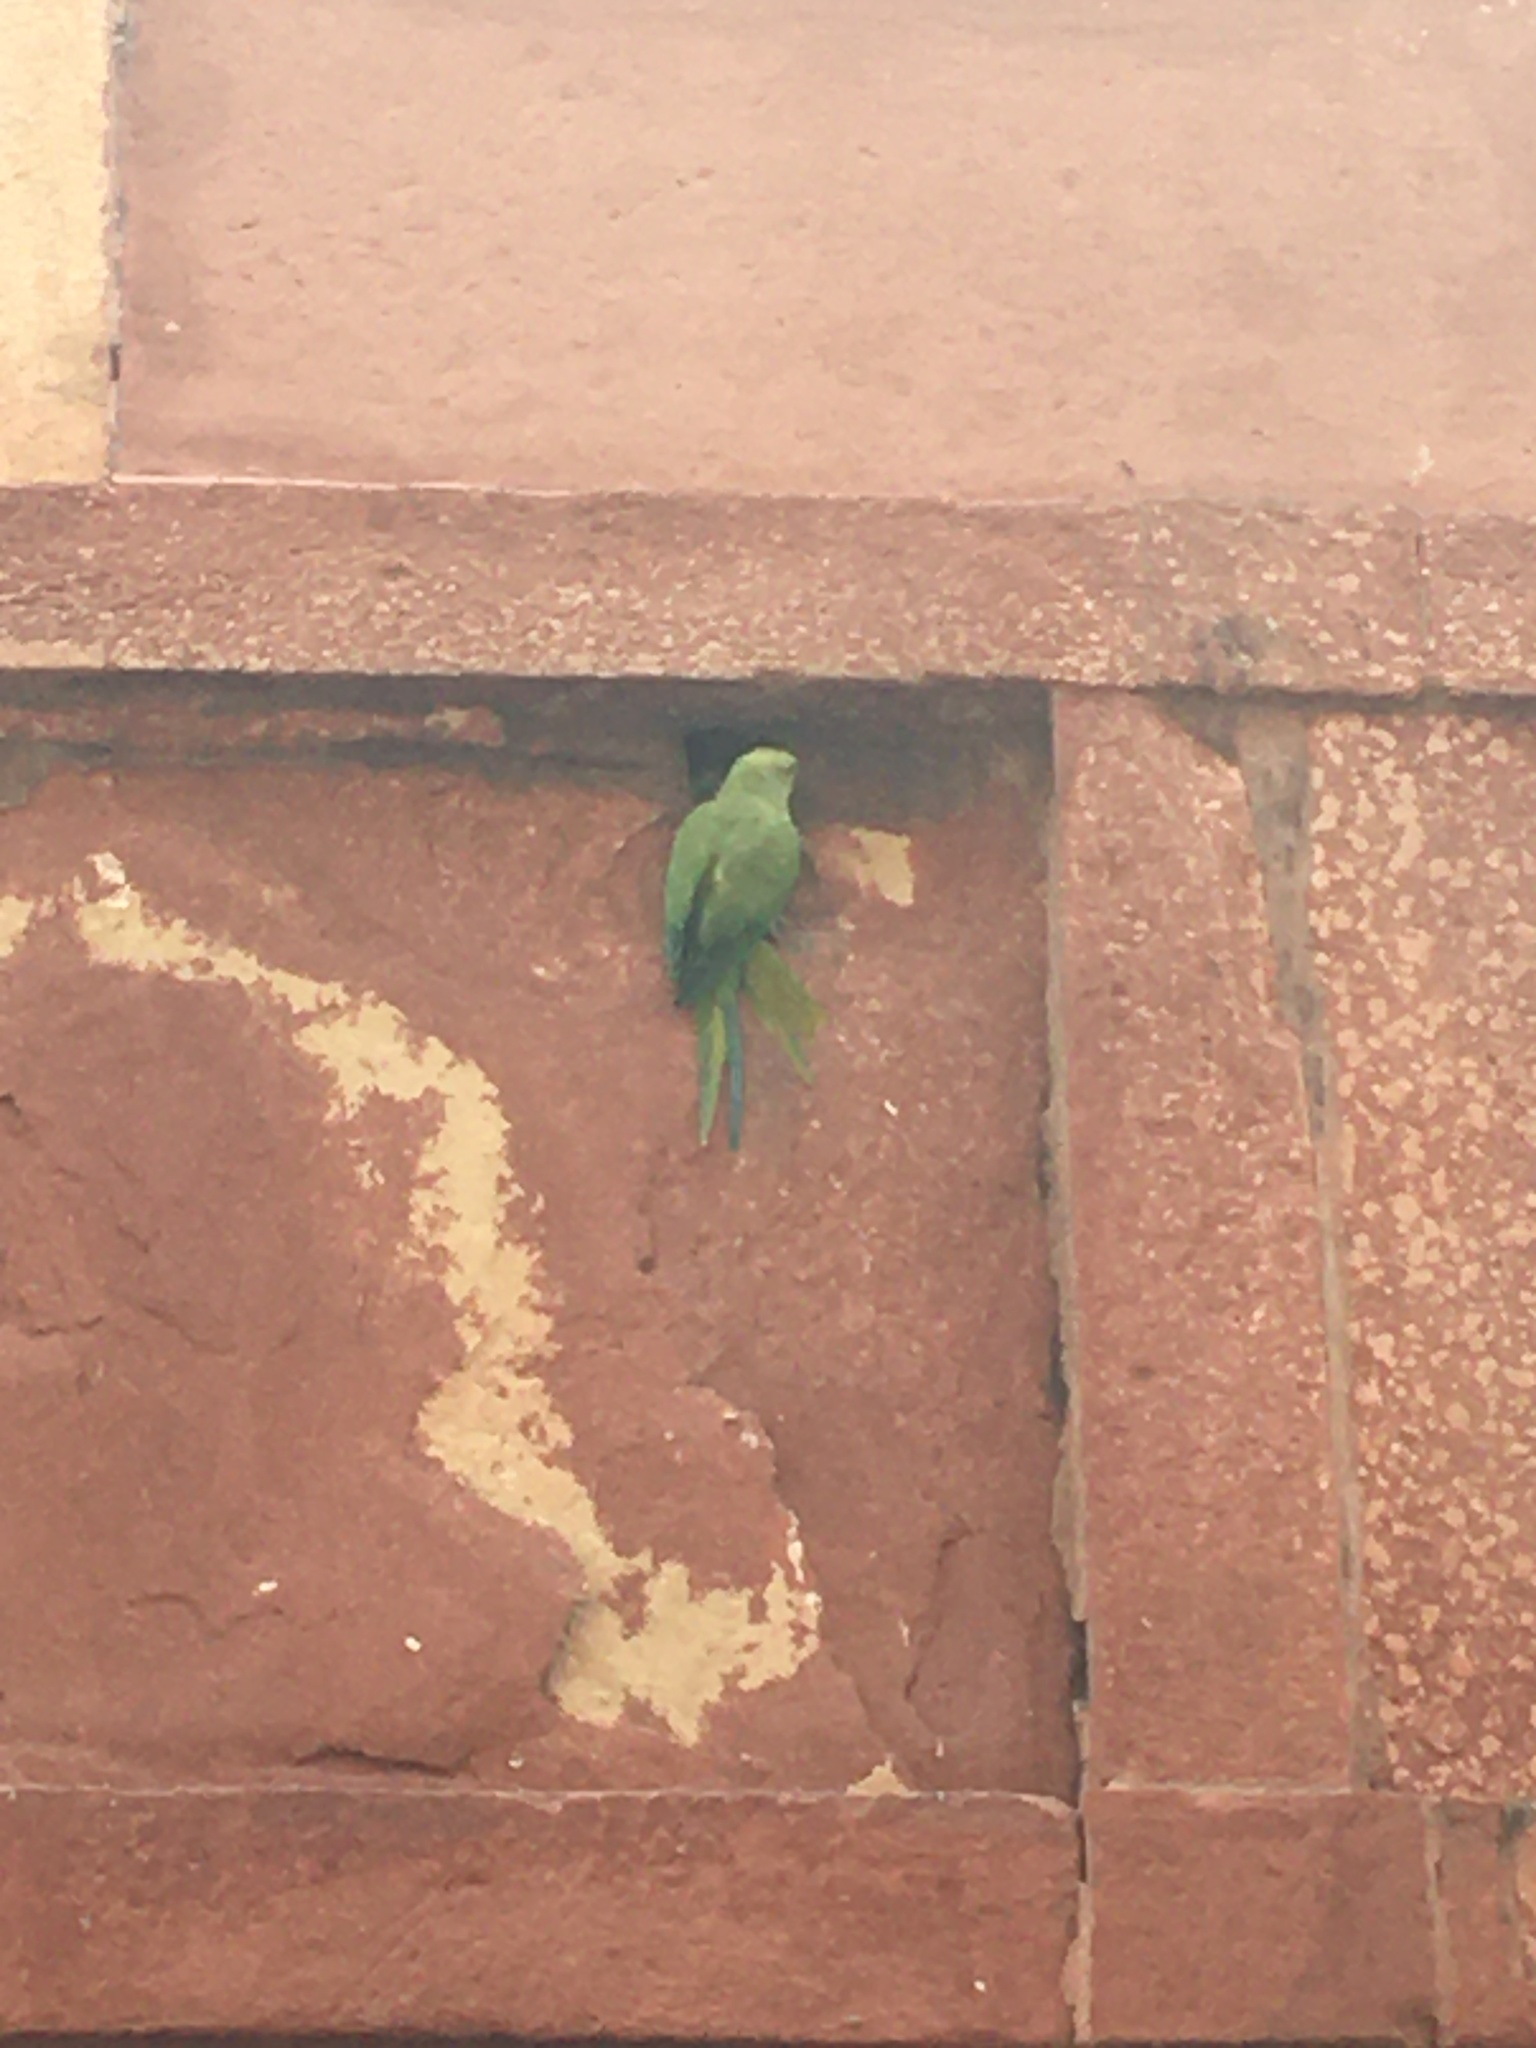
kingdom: Animalia
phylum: Chordata
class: Aves
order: Psittaciformes
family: Psittacidae
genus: Psittacula
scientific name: Psittacula krameri
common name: Rose-ringed parakeet
